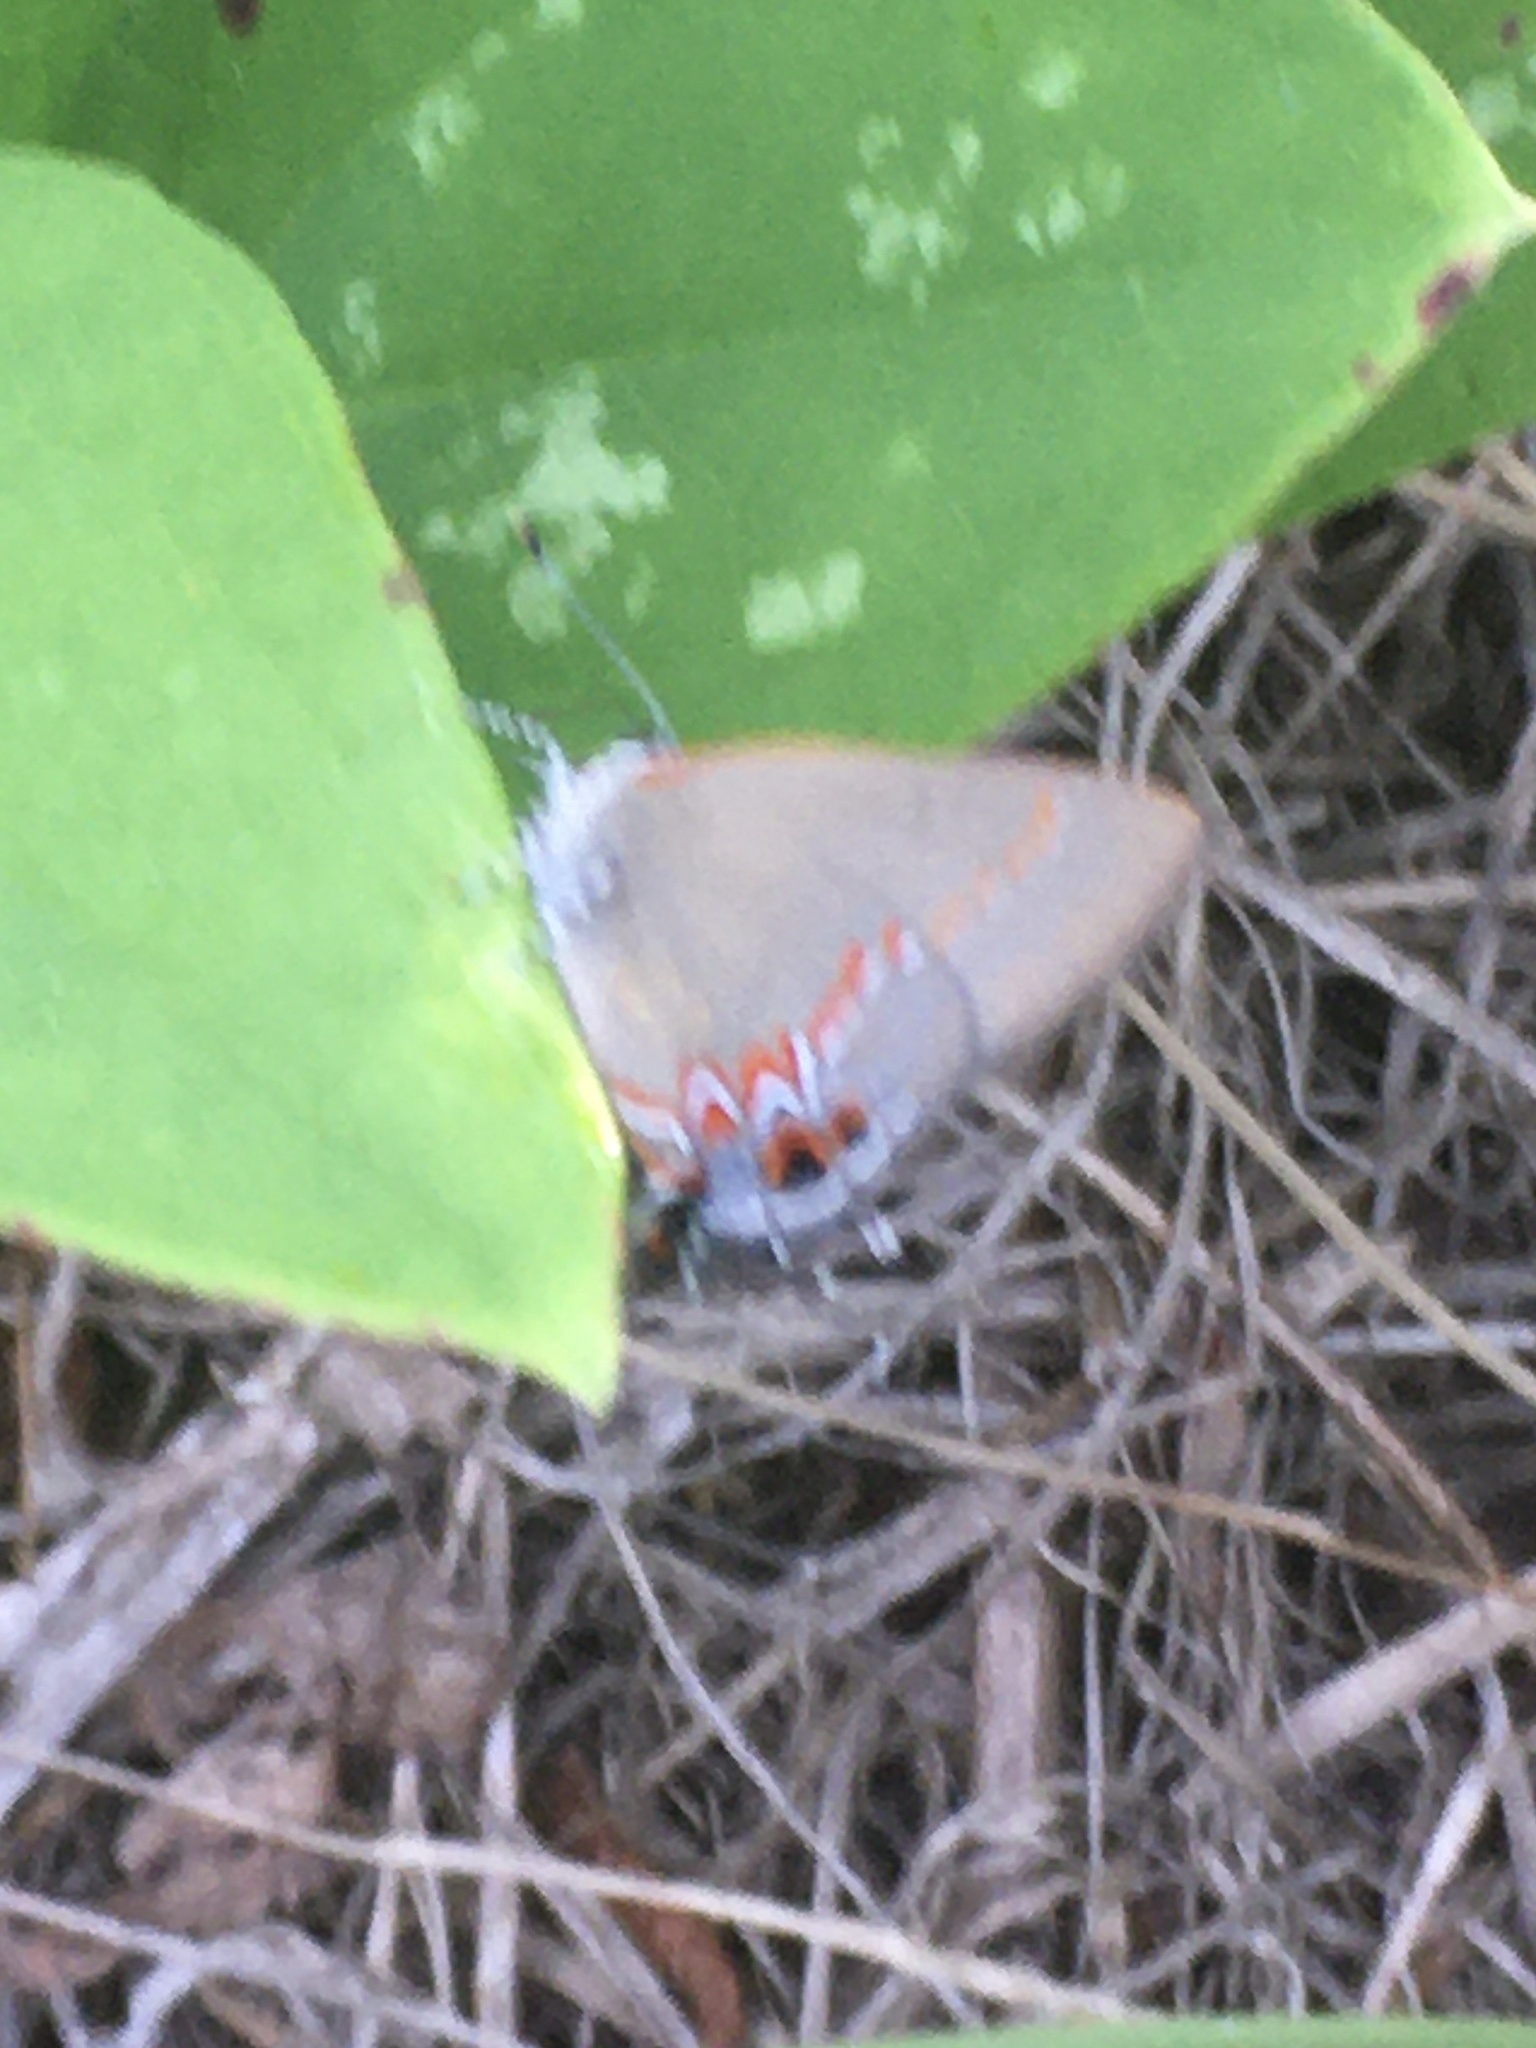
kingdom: Animalia
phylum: Arthropoda
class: Insecta
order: Lepidoptera
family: Lycaenidae
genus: Calycopis
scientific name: Calycopis cecrops
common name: Red-banded hairstreak
